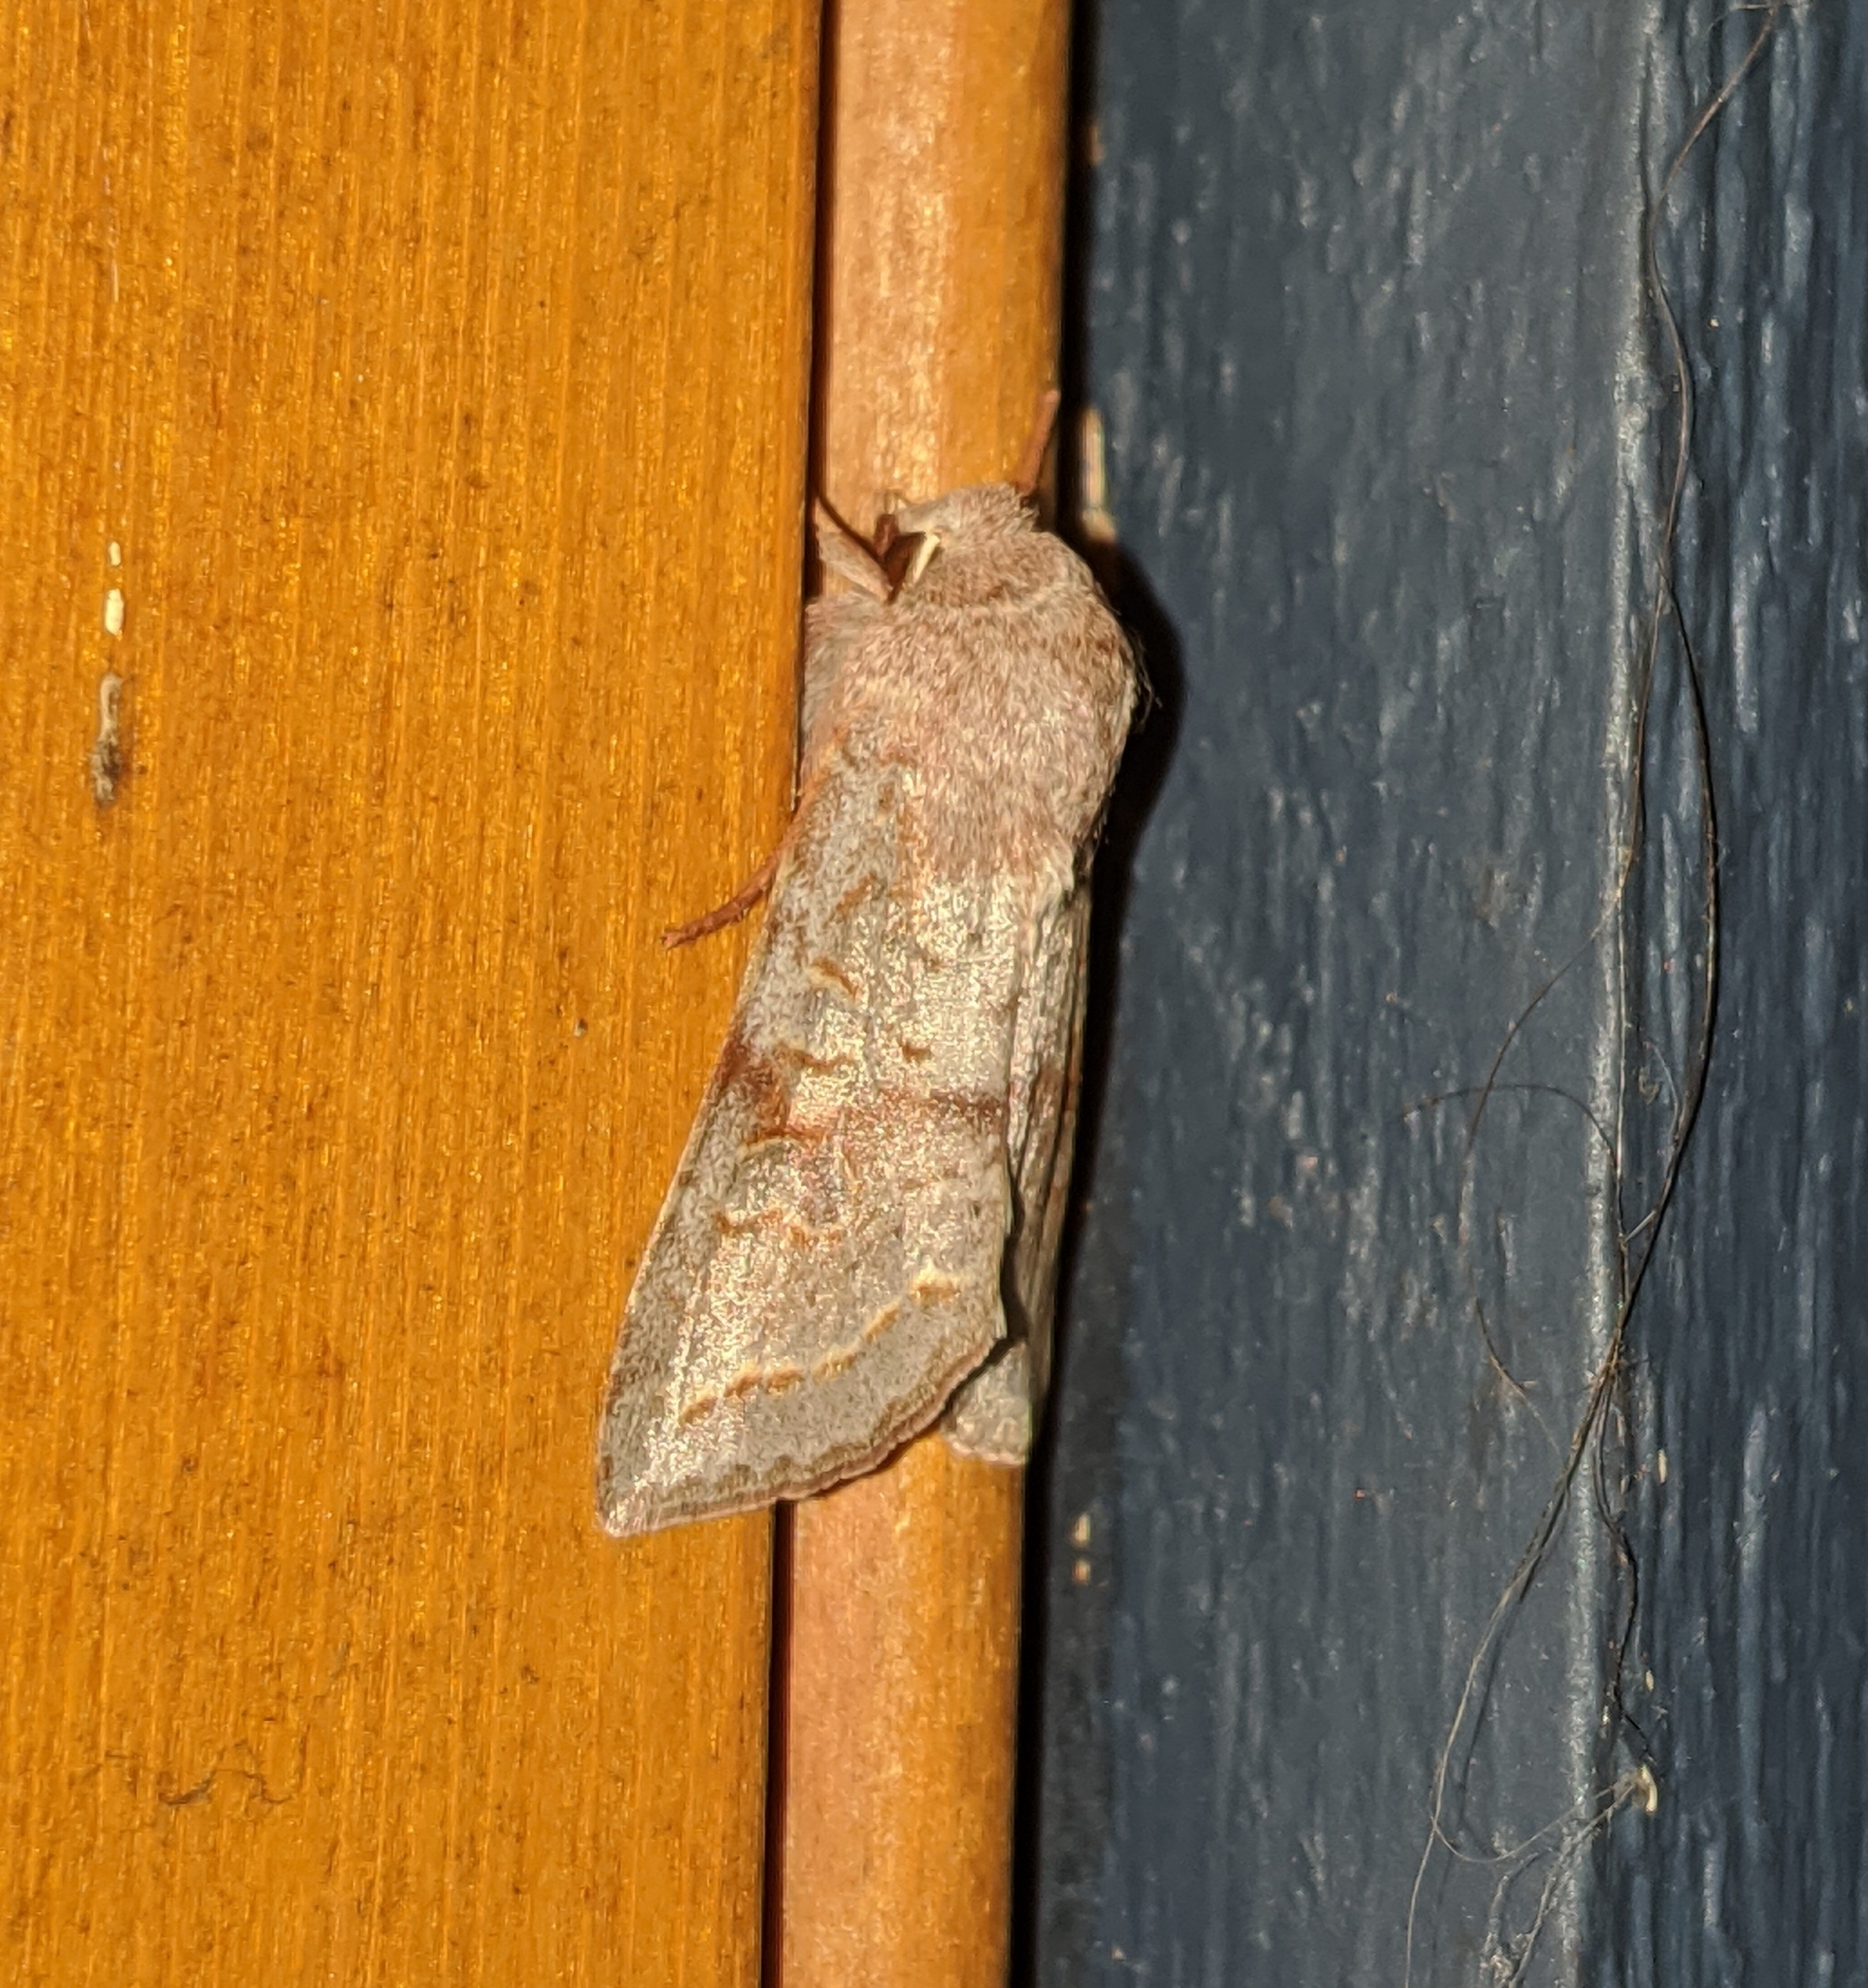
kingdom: Animalia
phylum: Arthropoda
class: Insecta
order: Lepidoptera
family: Noctuidae
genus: Orthosia
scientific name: Orthosia revicta
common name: Rusty whitesided caterpillar
